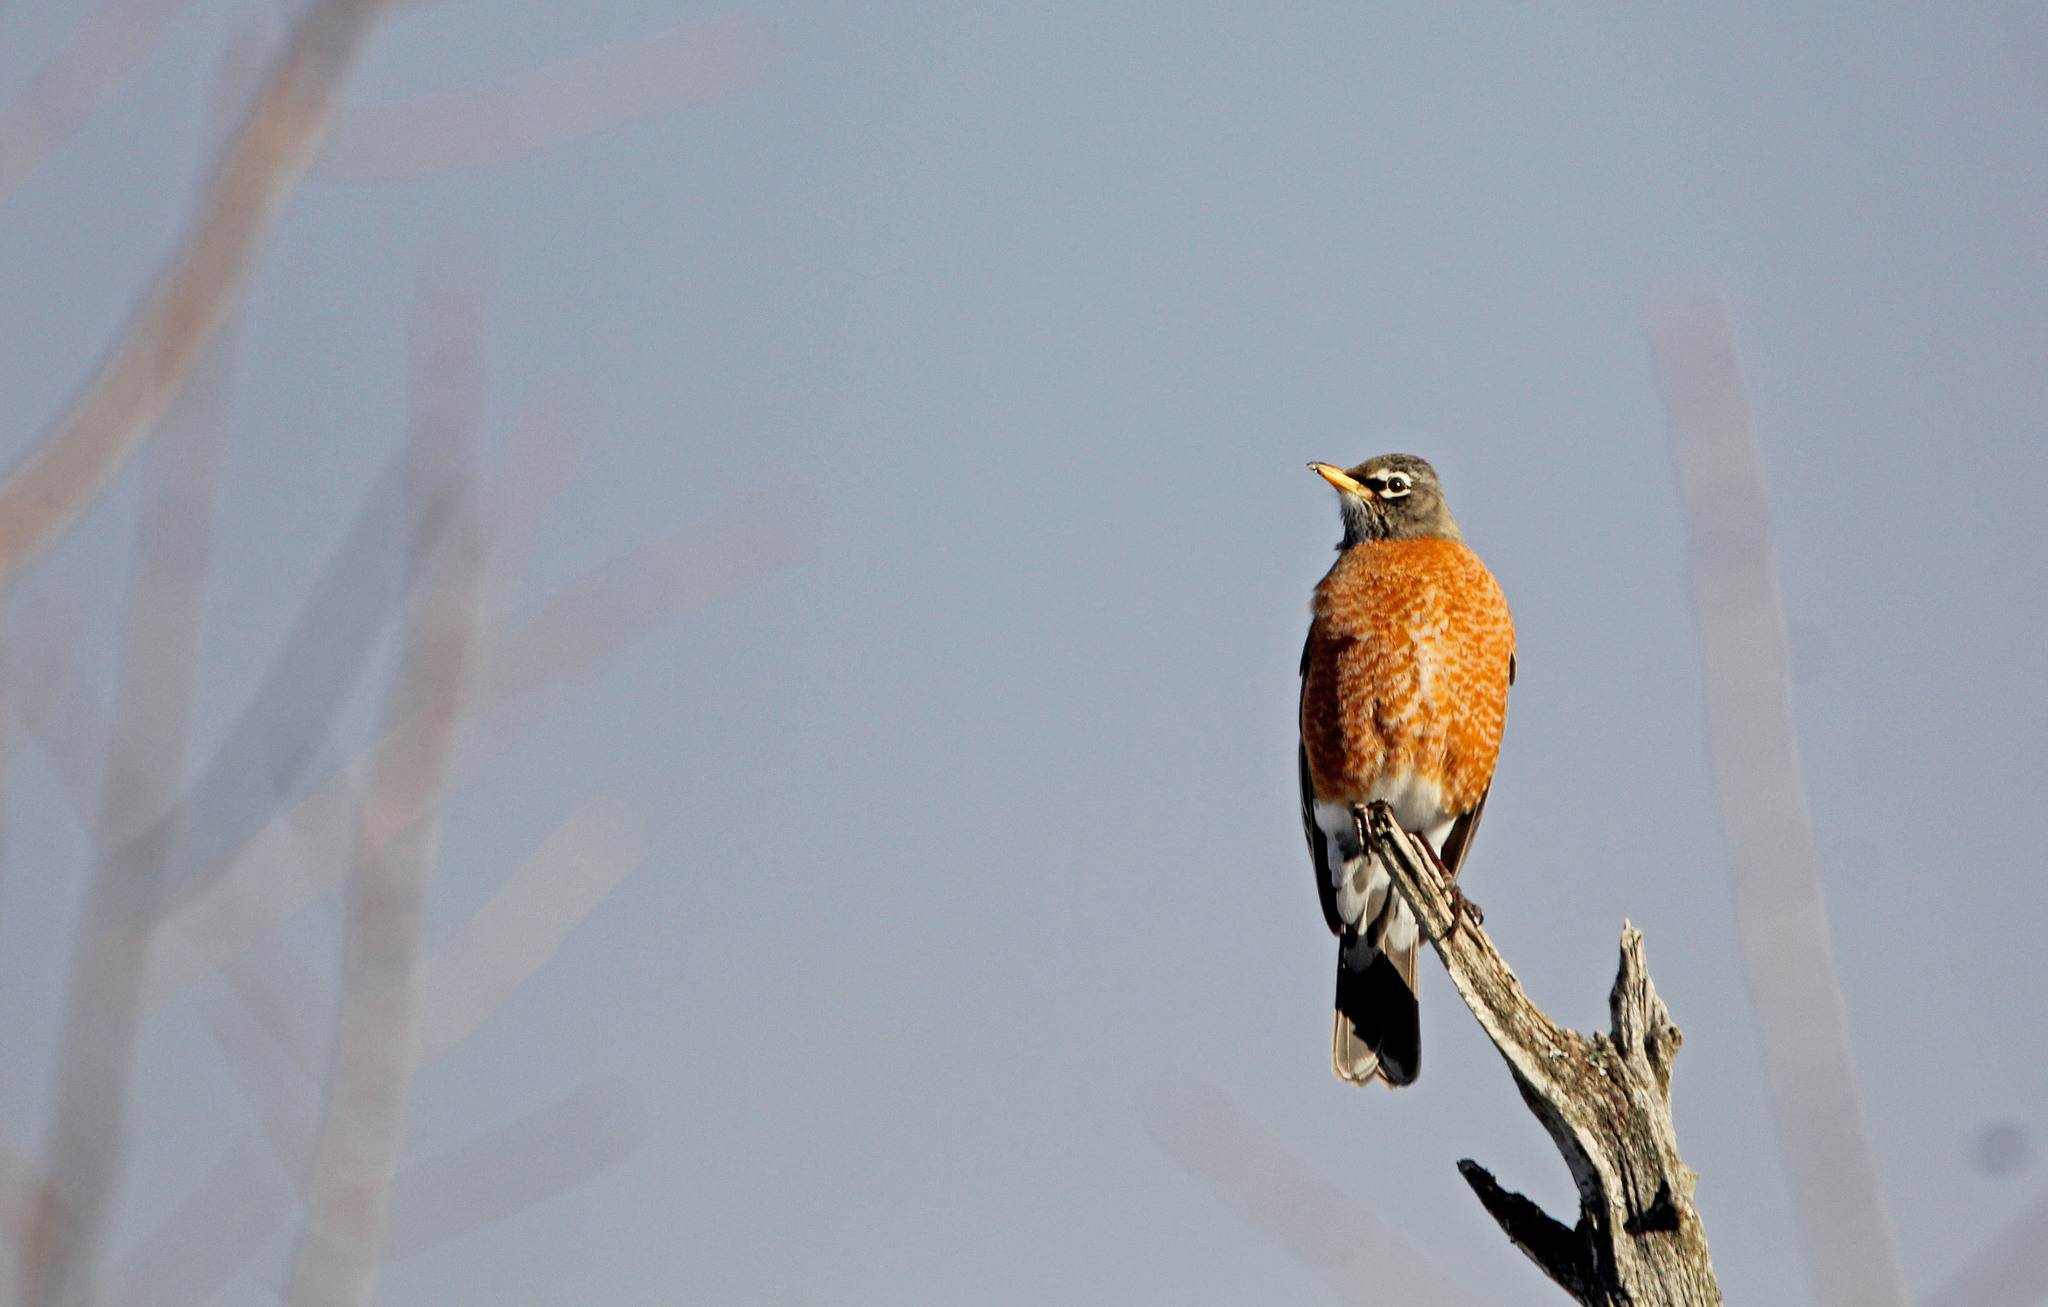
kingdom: Animalia
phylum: Chordata
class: Aves
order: Passeriformes
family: Turdidae
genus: Turdus
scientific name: Turdus migratorius
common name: American robin
